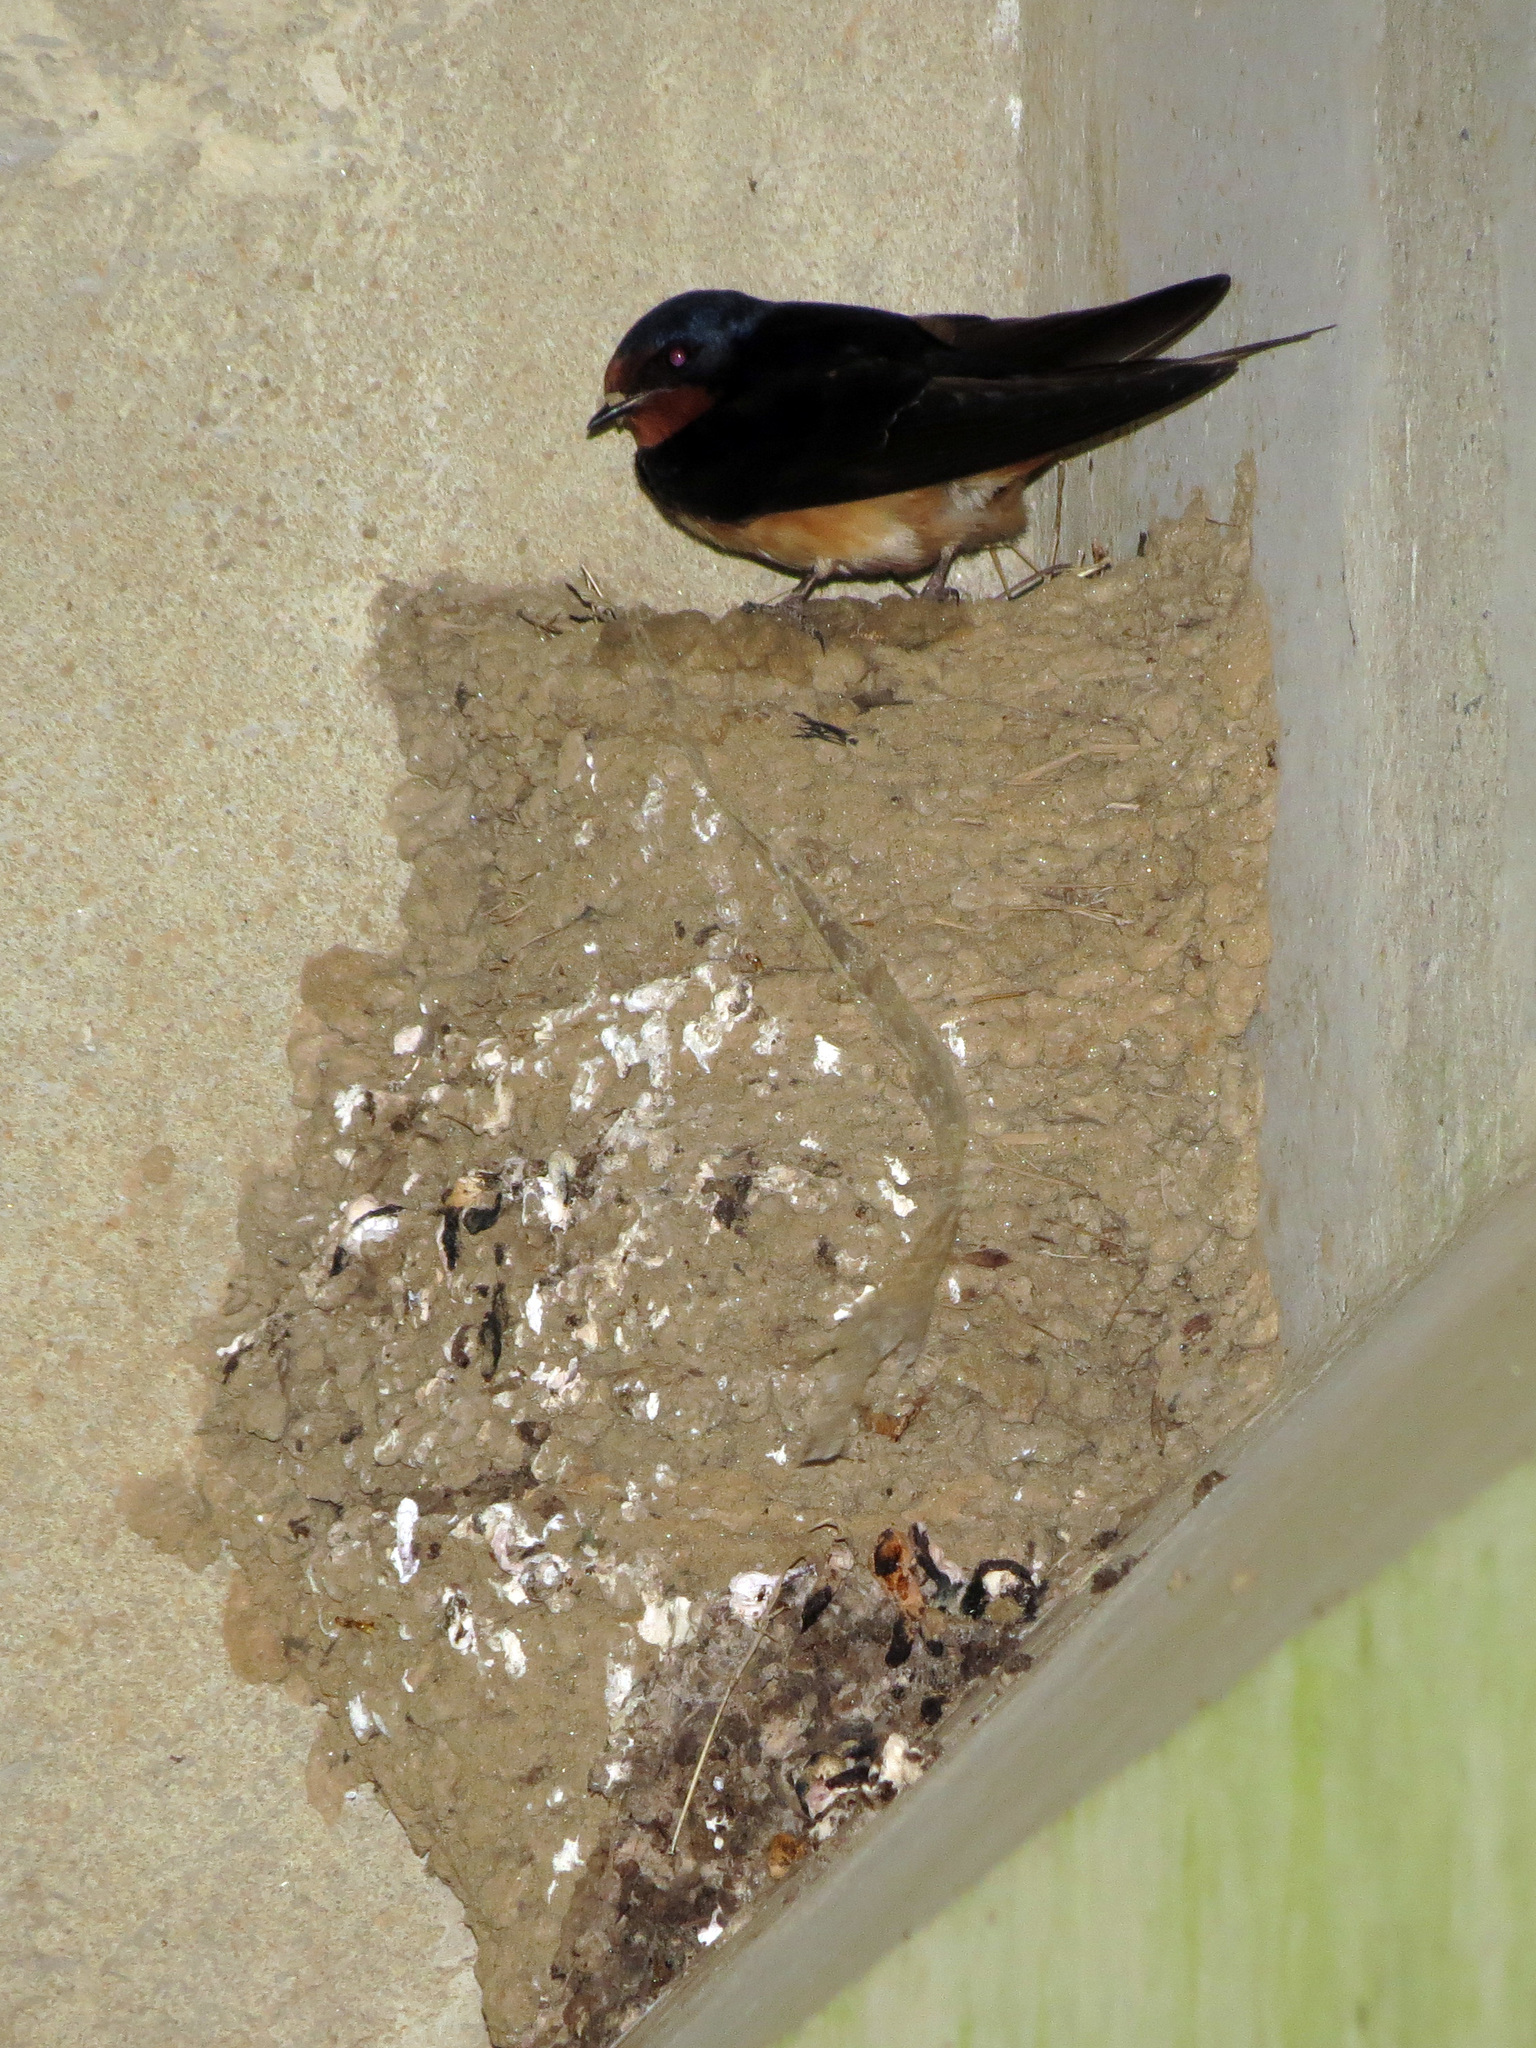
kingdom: Animalia
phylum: Chordata
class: Aves
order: Passeriformes
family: Hirundinidae
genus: Hirundo
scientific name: Hirundo rustica
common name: Barn swallow
